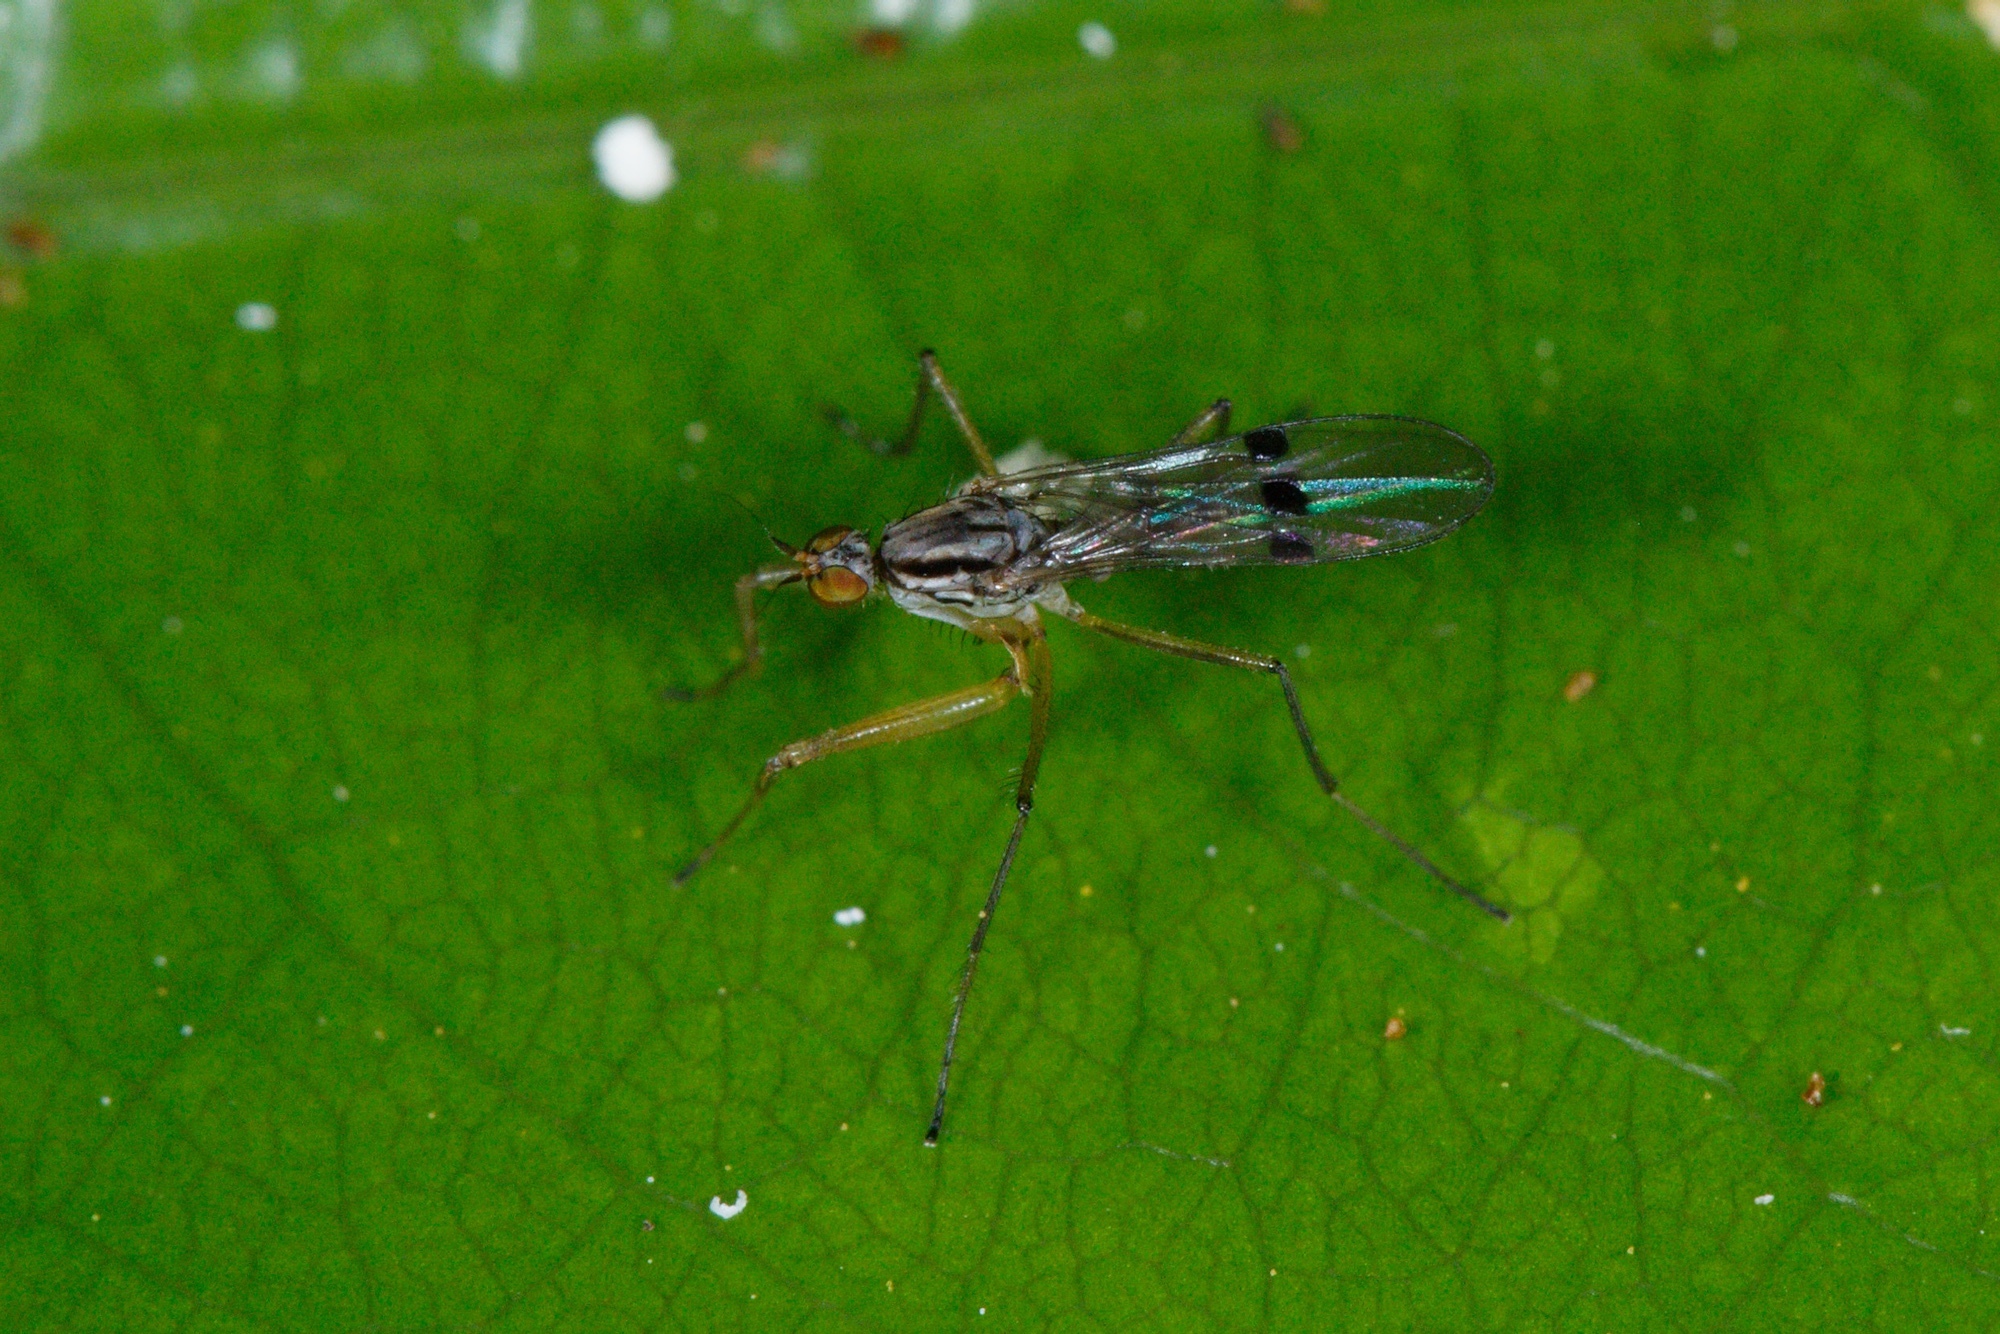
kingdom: Animalia
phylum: Arthropoda
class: Insecta
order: Diptera
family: Empididae
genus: Chelipoda
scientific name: Chelipoda mirabilis
